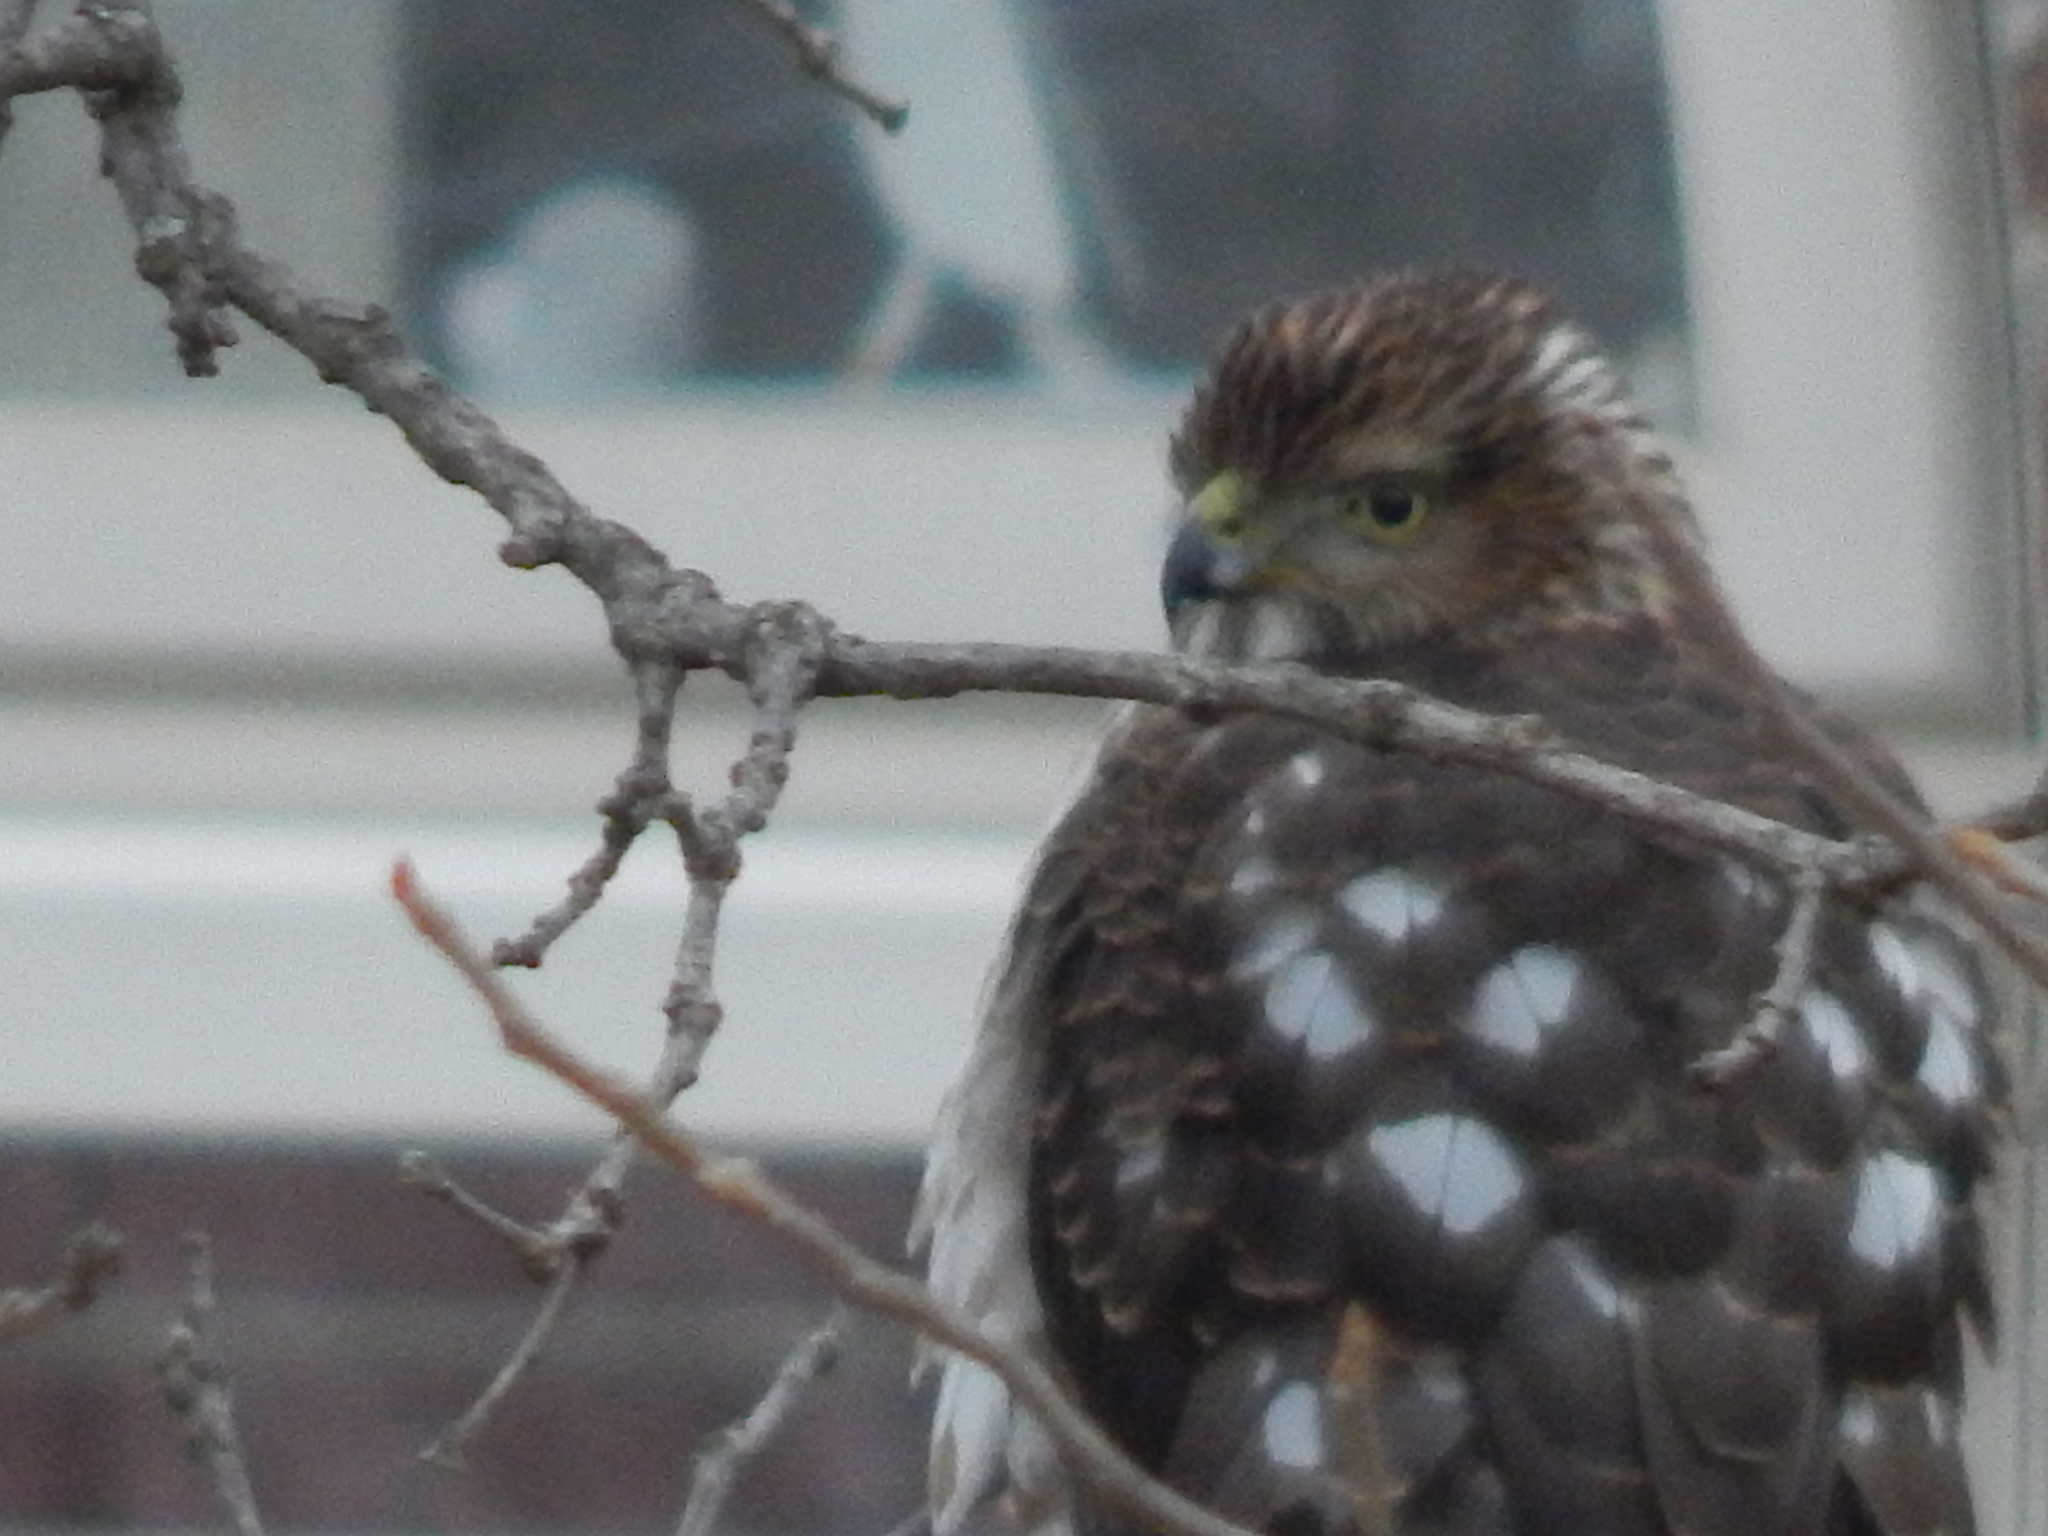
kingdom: Animalia
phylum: Chordata
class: Aves
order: Accipitriformes
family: Accipitridae
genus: Accipiter
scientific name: Accipiter cooperii
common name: Cooper's hawk
